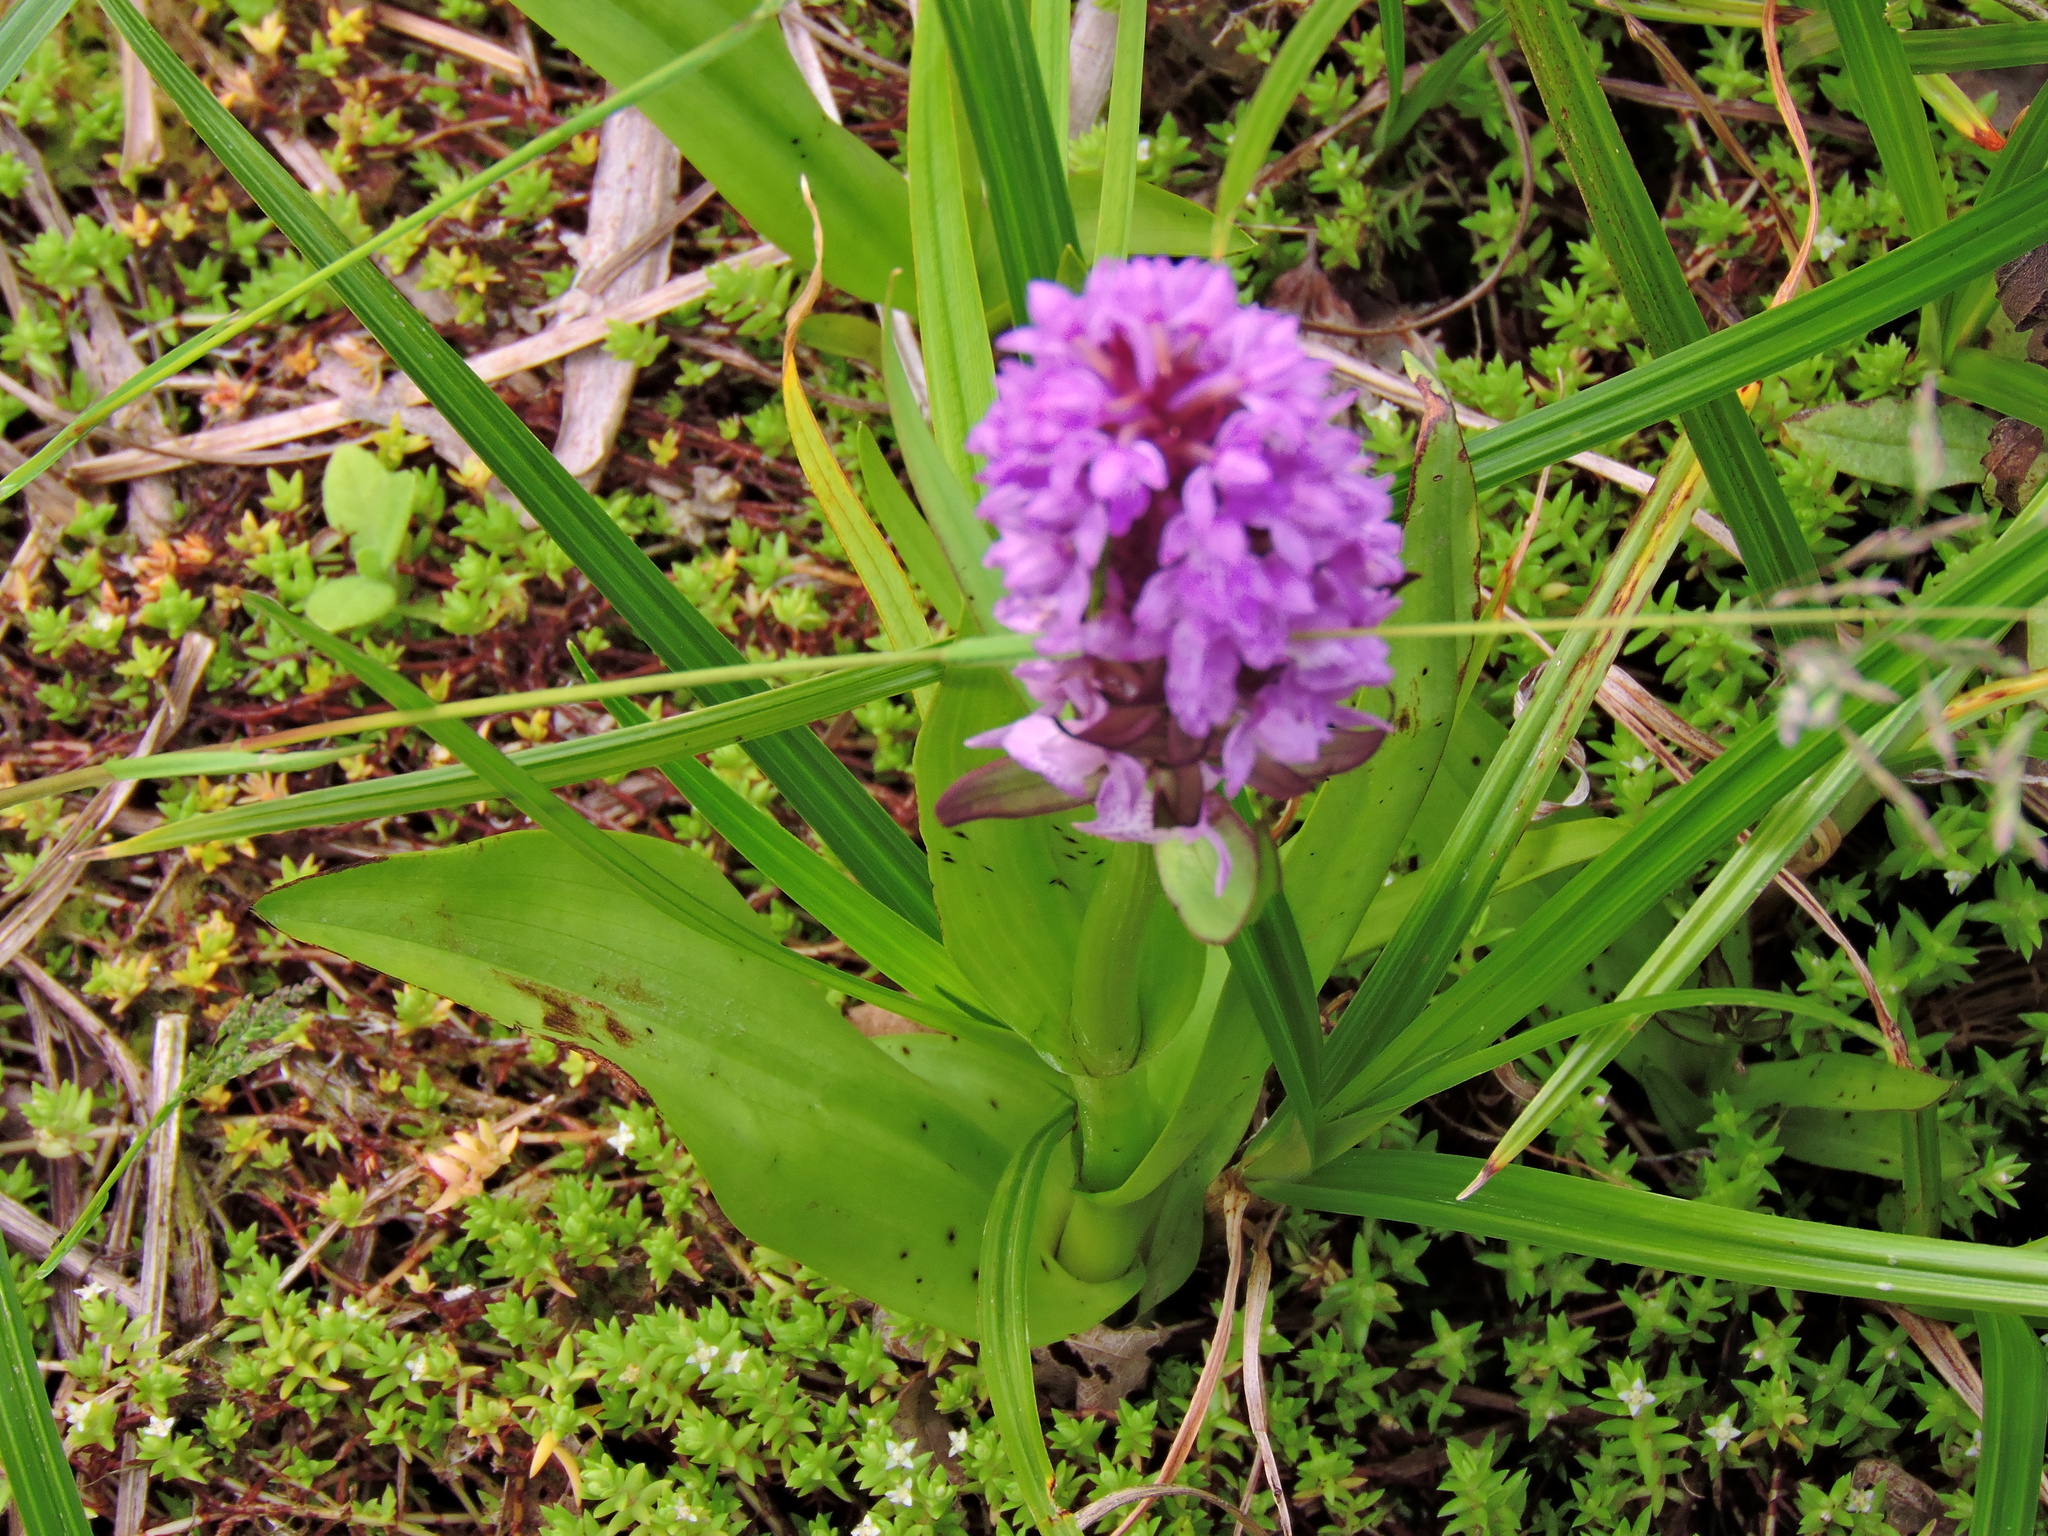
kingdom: Plantae
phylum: Tracheophyta
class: Liliopsida
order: Asparagales
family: Orchidaceae
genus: Dactylorhiza
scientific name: Dactylorhiza majalis
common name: Marsh orchid
